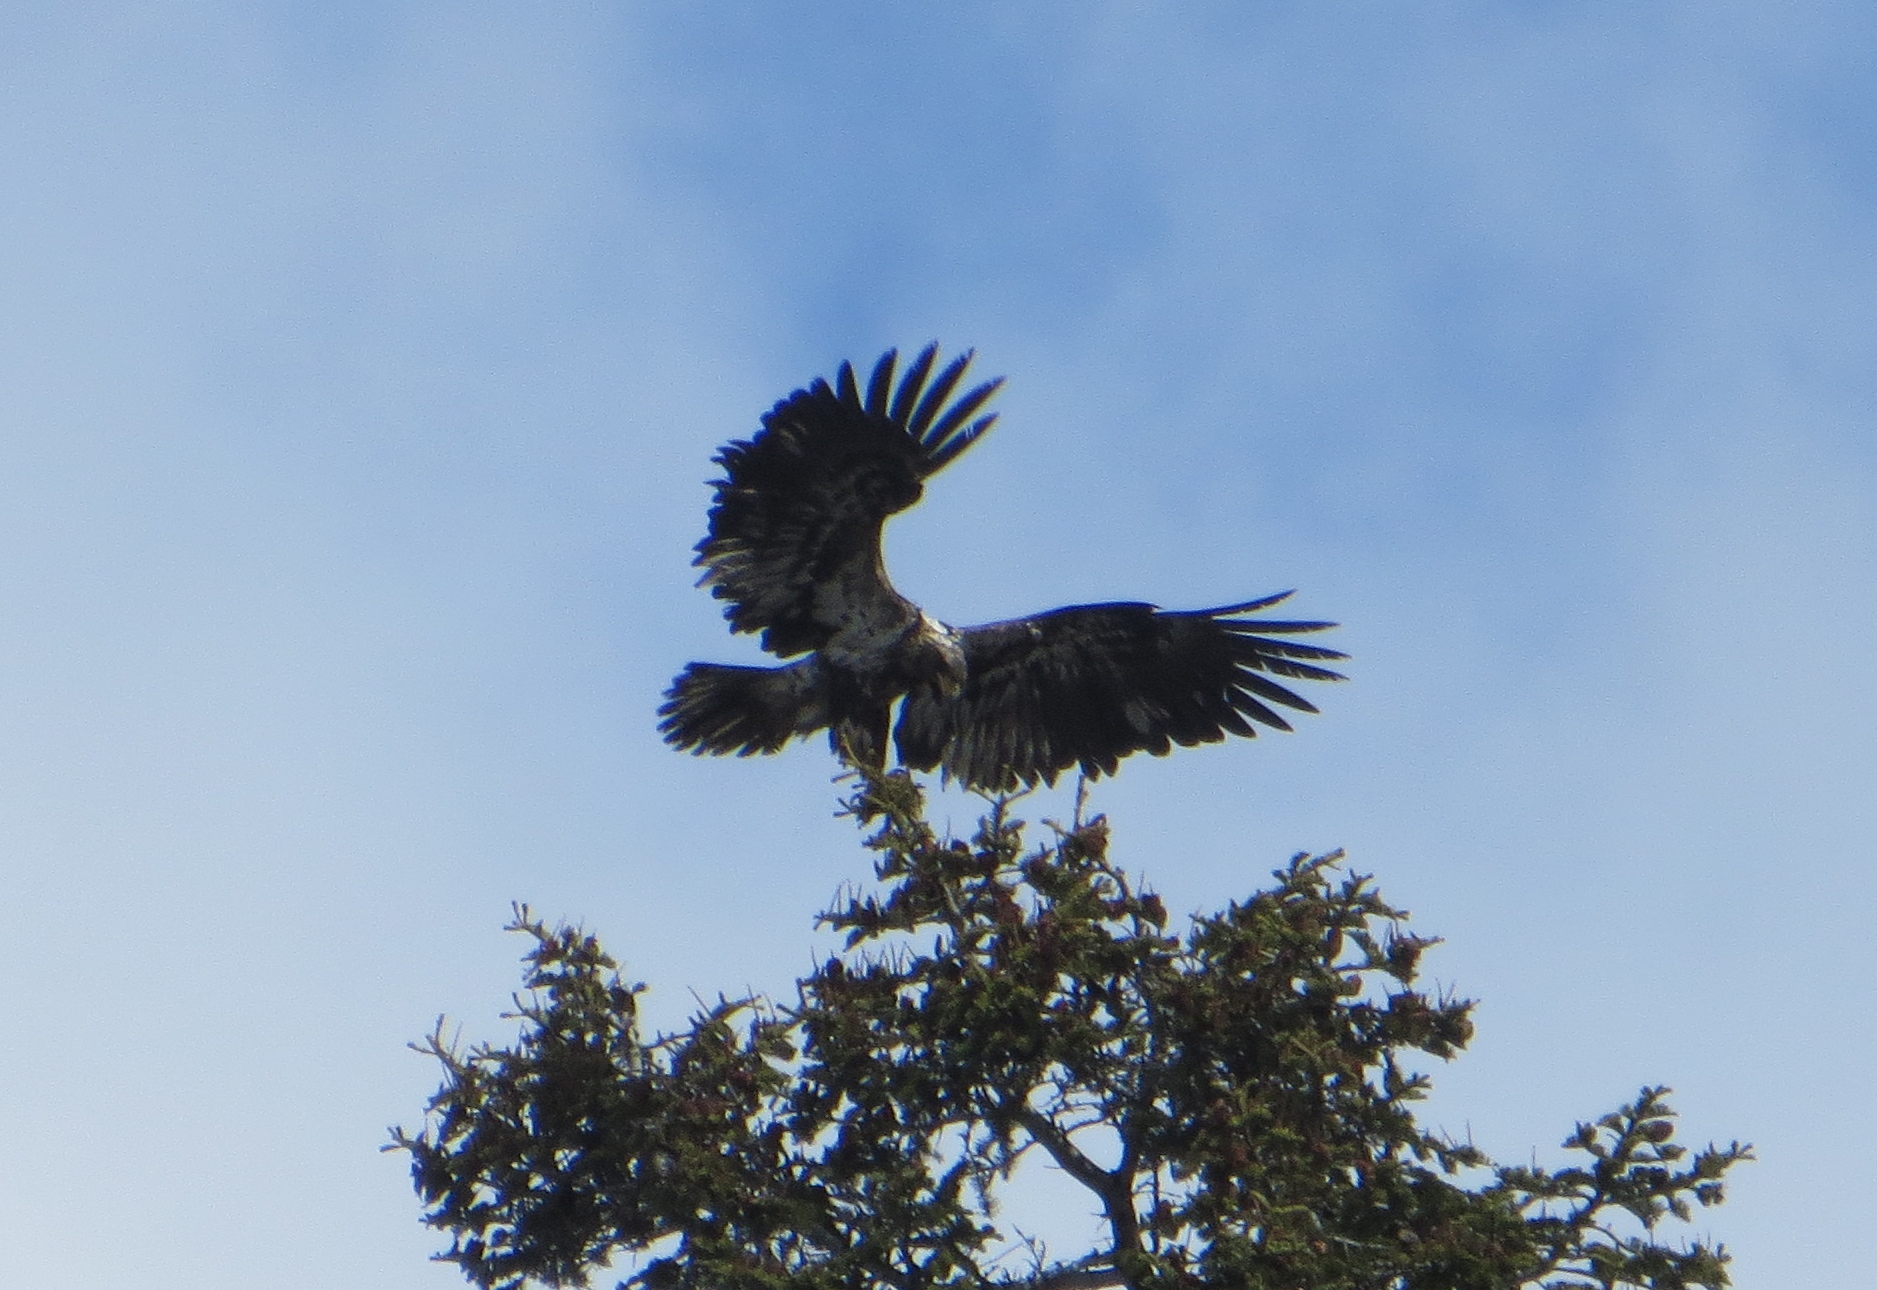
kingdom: Animalia
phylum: Chordata
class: Aves
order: Accipitriformes
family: Accipitridae
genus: Haliaeetus
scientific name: Haliaeetus leucocephalus
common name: Bald eagle
